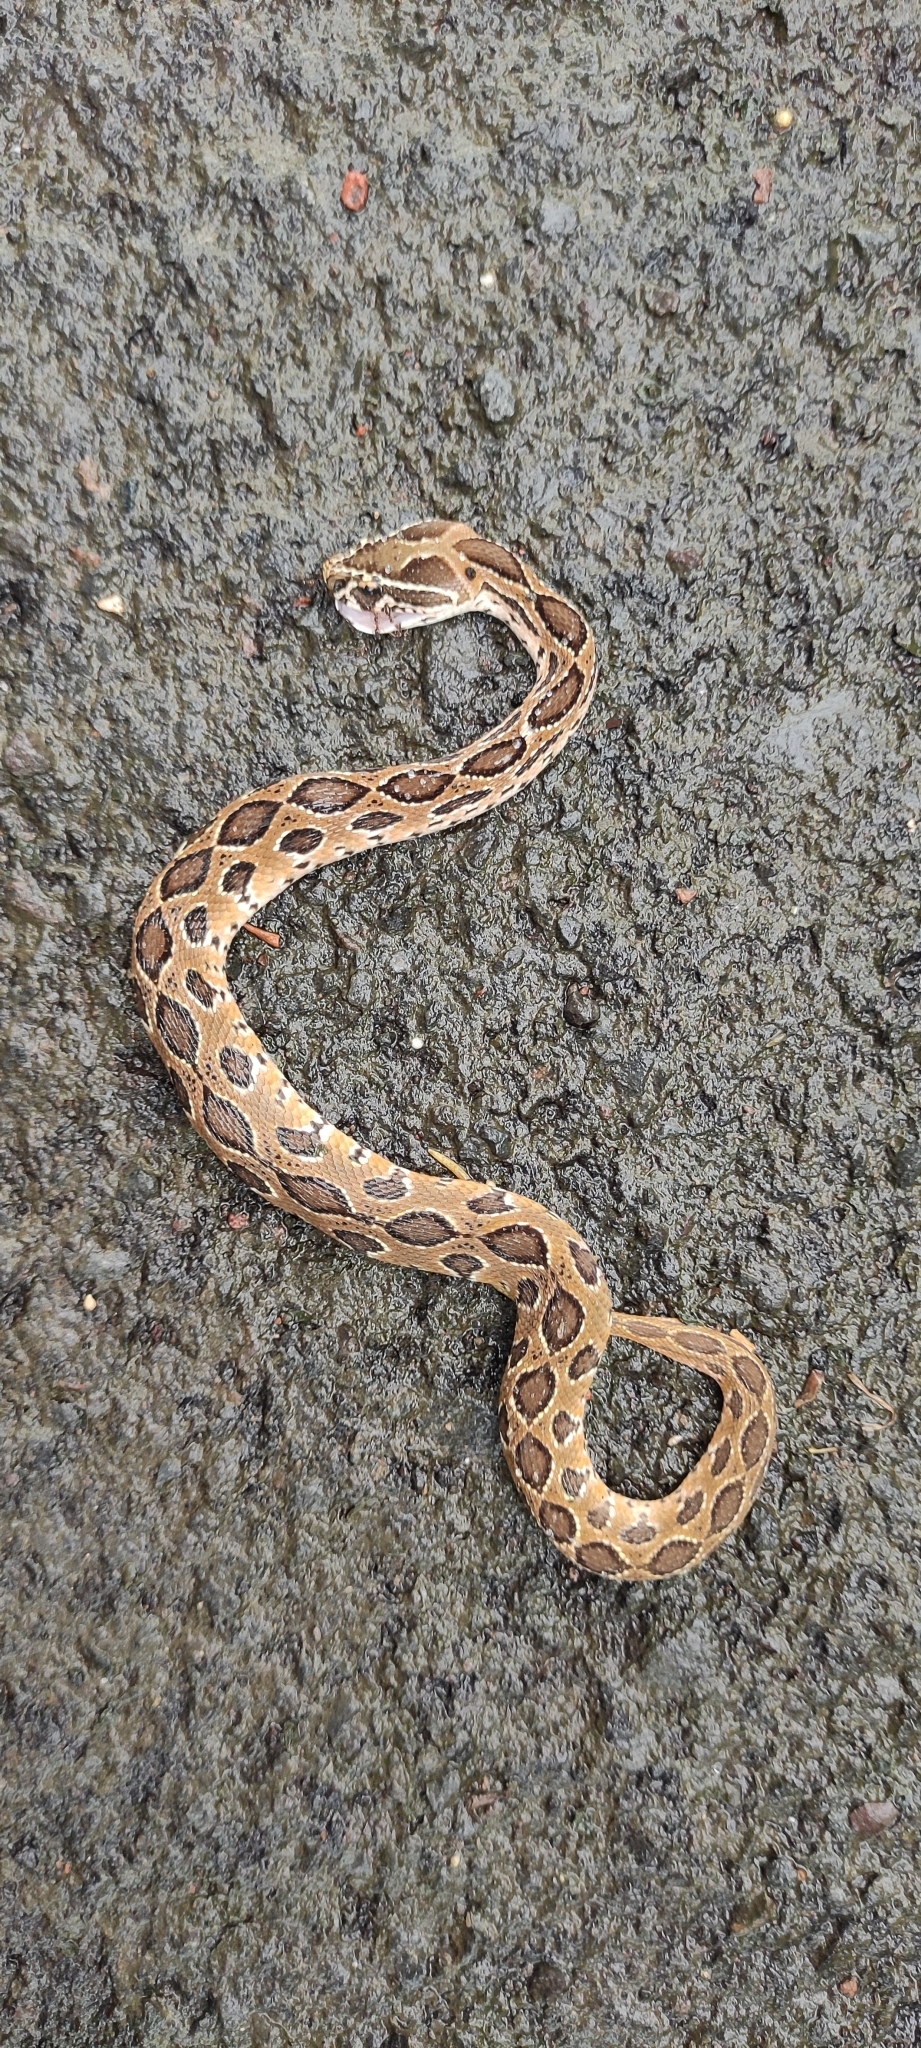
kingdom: Animalia
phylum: Chordata
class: Squamata
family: Viperidae
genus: Daboia
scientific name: Daboia russelii
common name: Western russel’s viper
